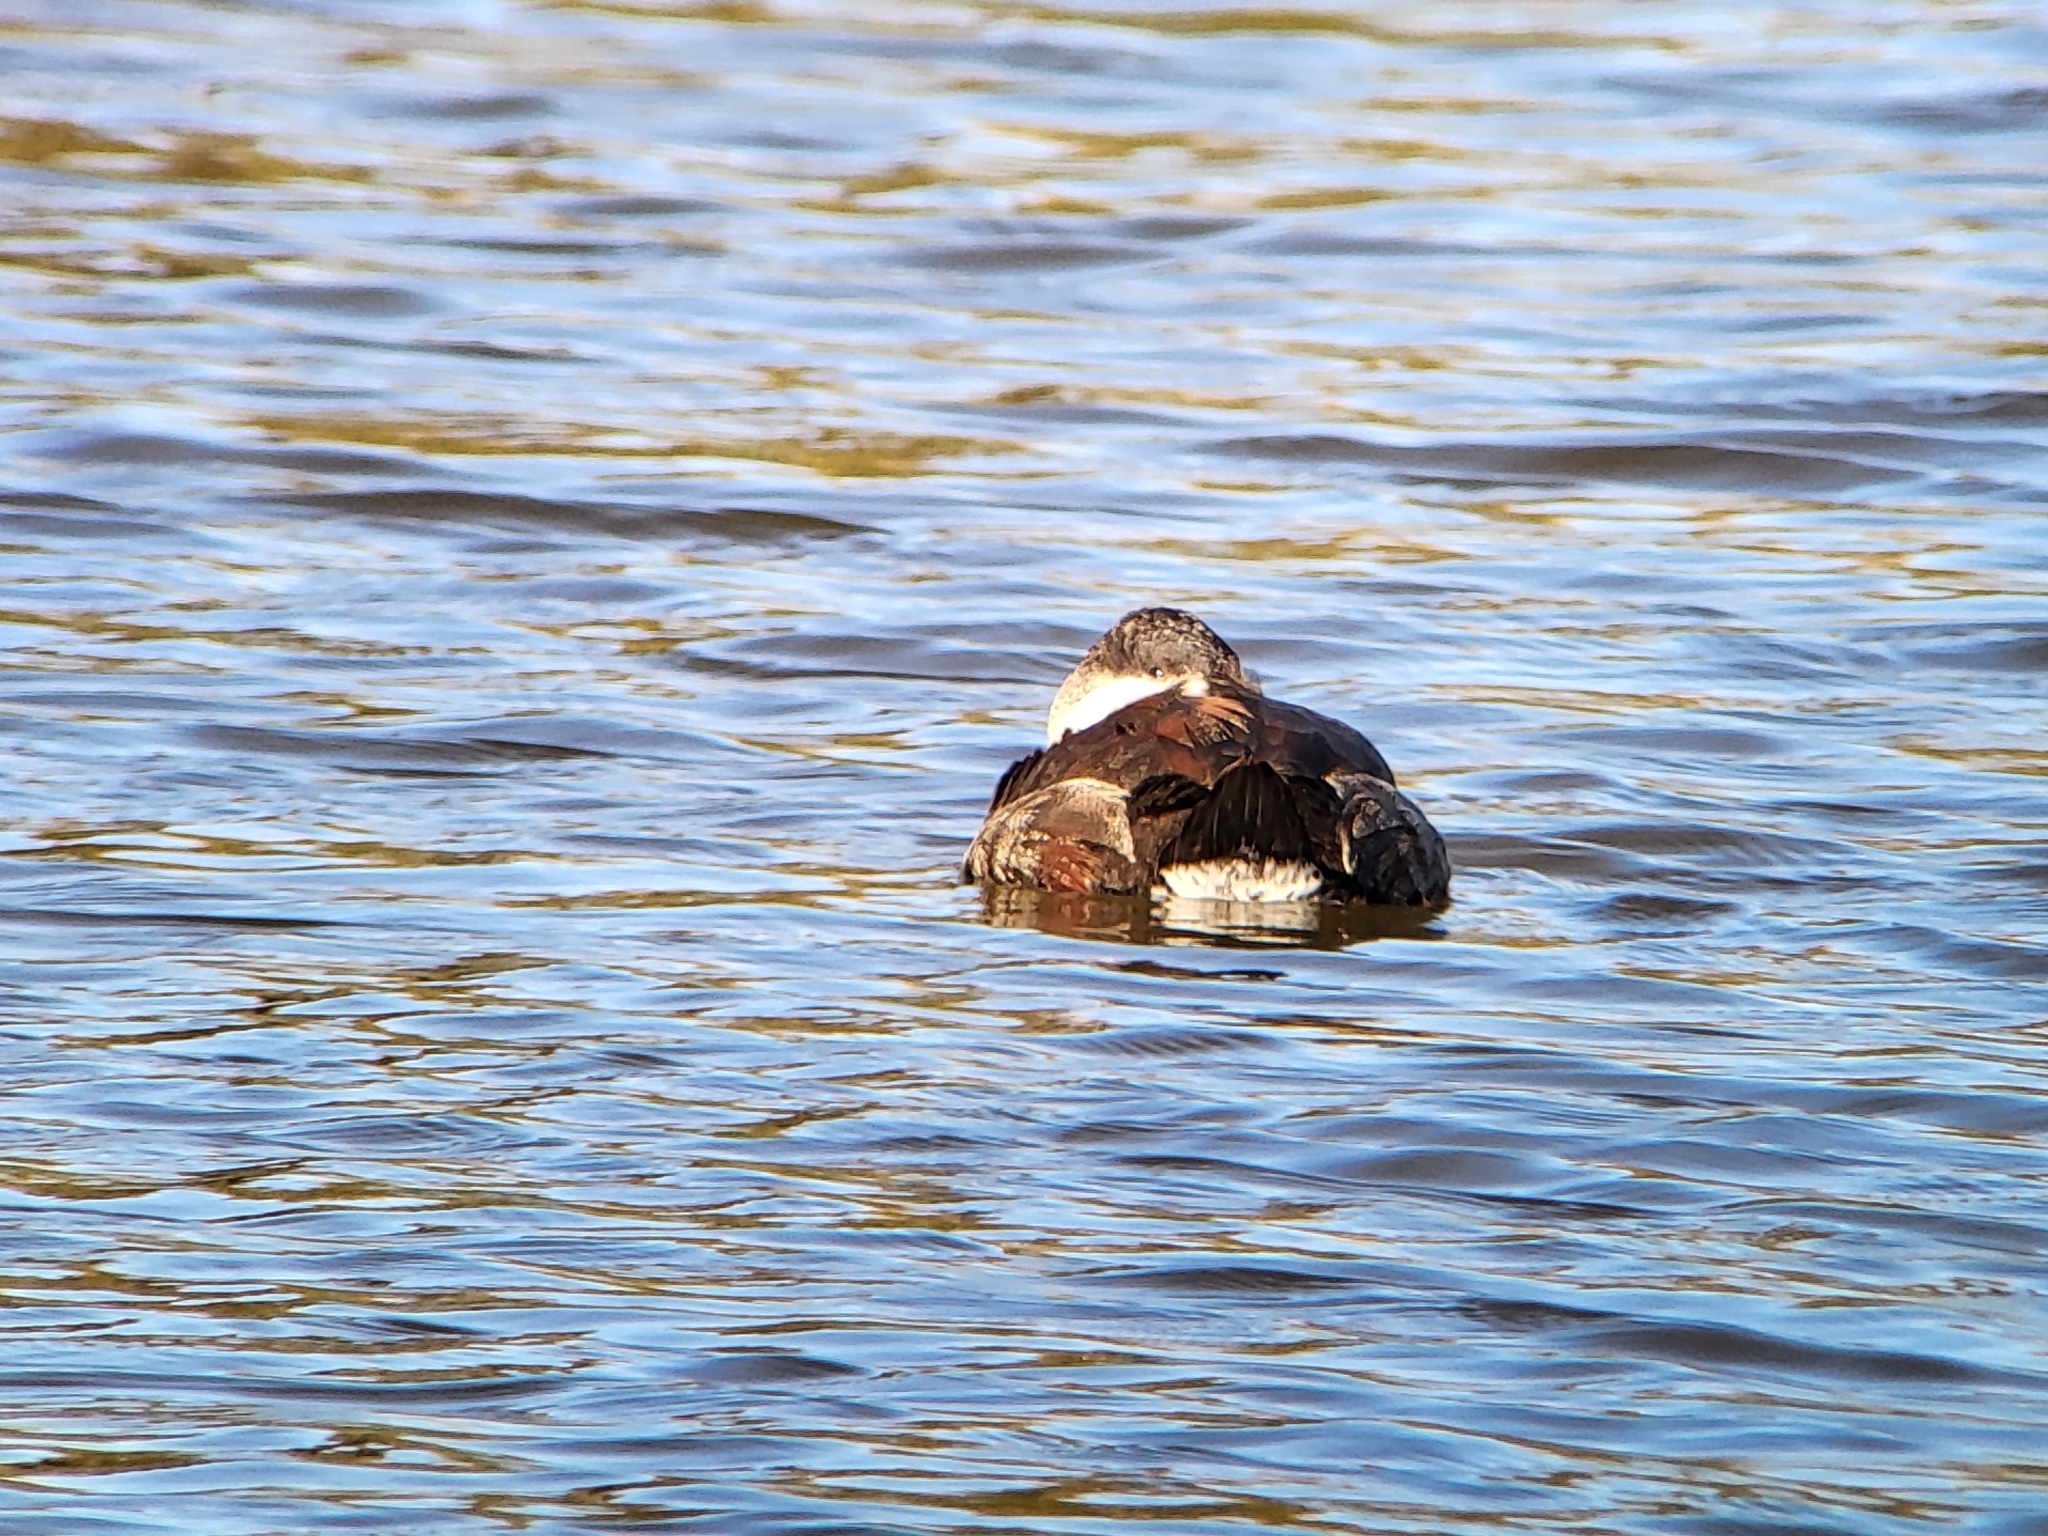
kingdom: Animalia
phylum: Chordata
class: Aves
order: Anseriformes
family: Anatidae
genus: Oxyura
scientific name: Oxyura jamaicensis
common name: Ruddy duck
